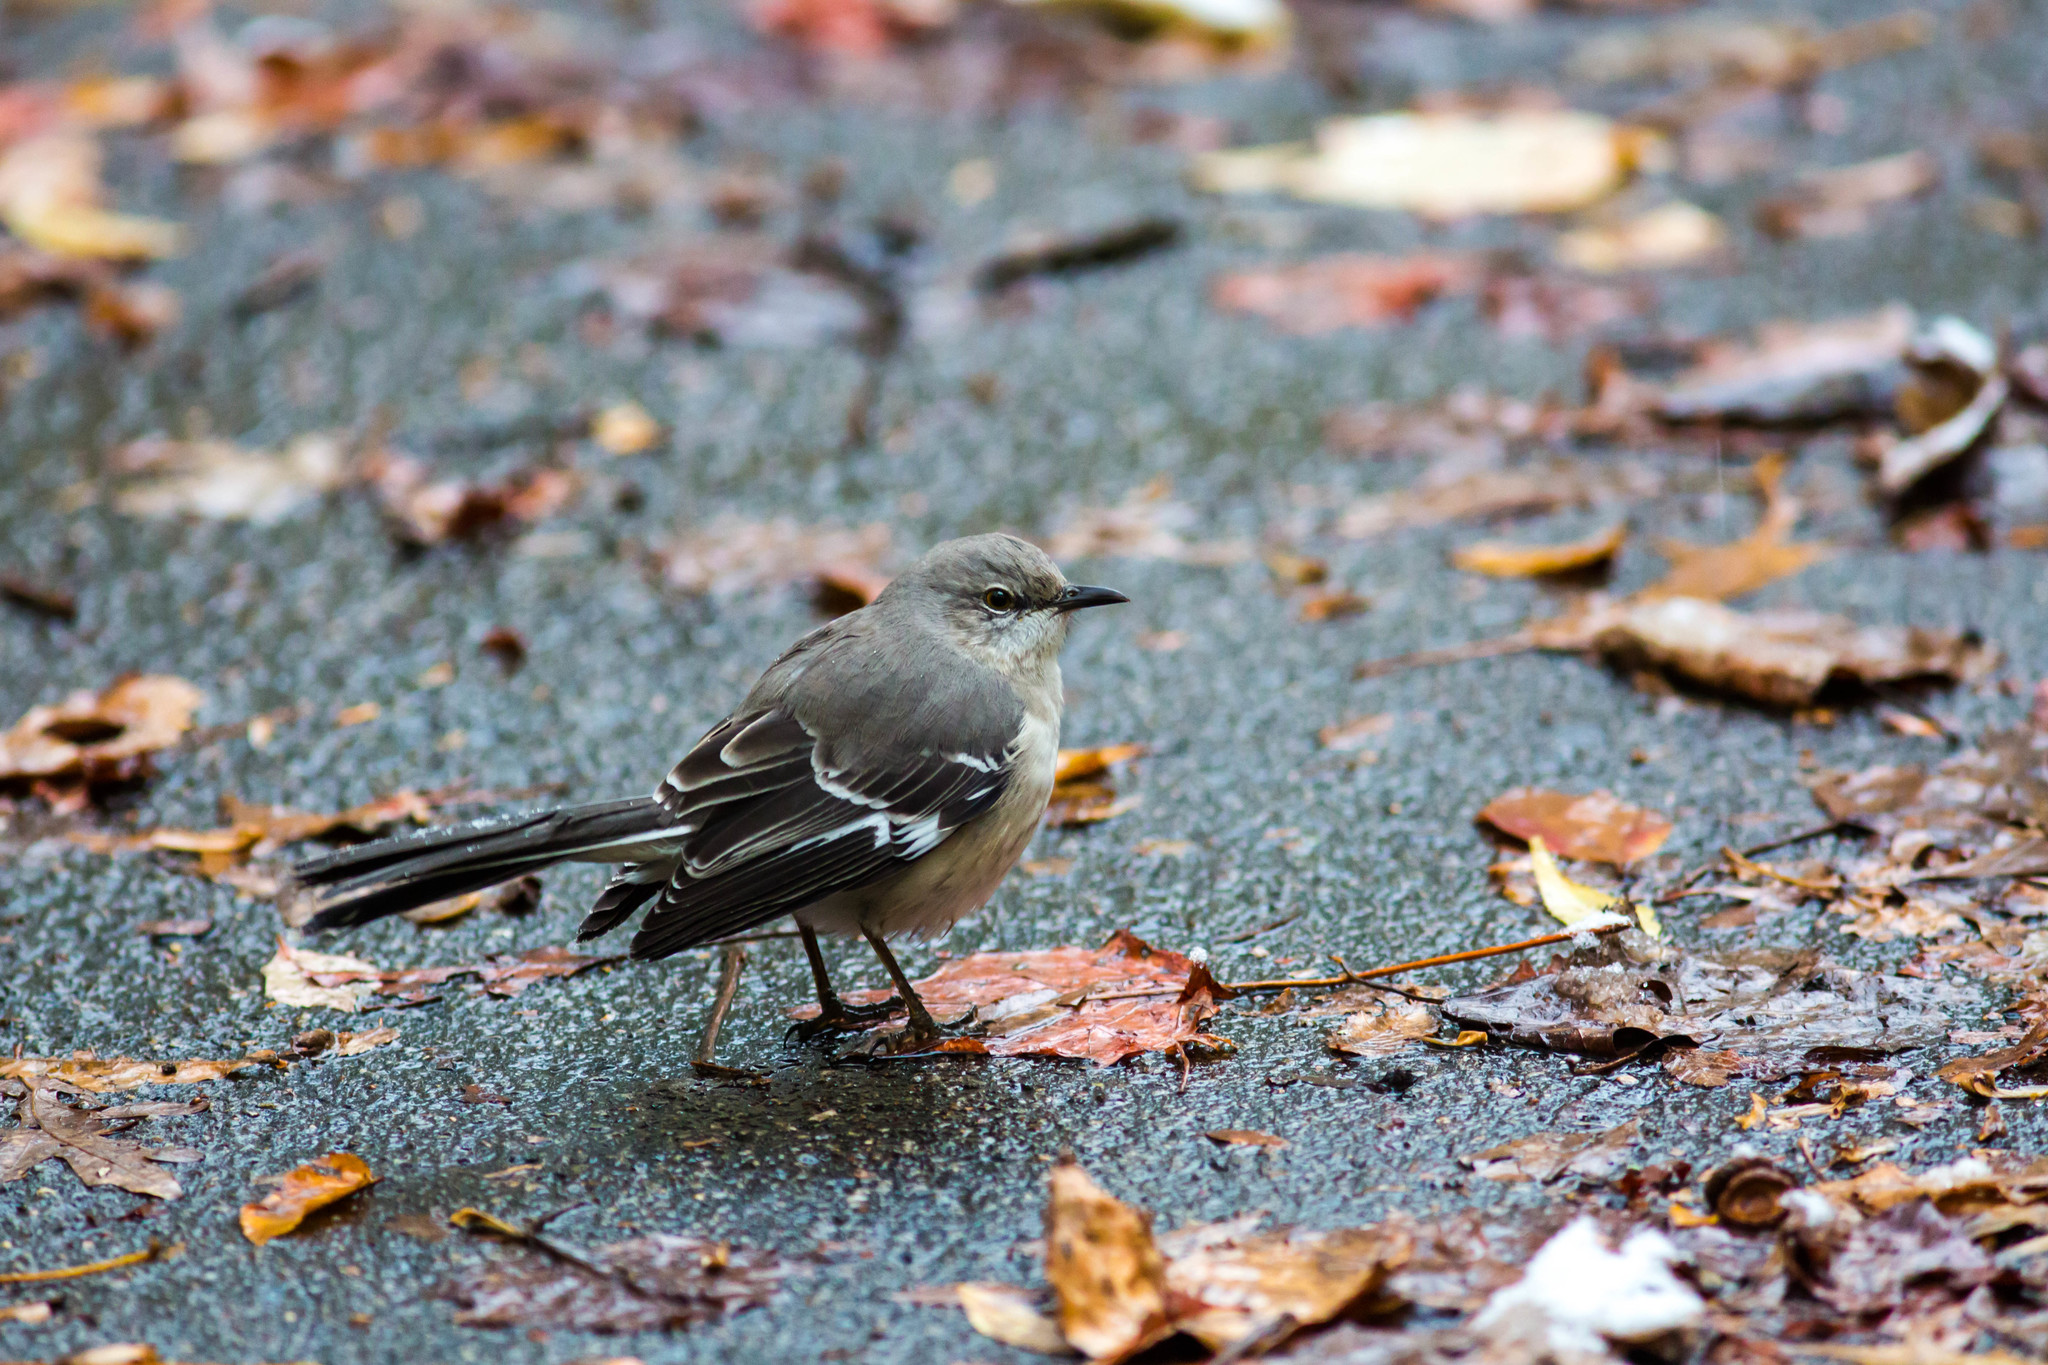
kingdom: Animalia
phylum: Chordata
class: Aves
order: Passeriformes
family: Mimidae
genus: Mimus
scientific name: Mimus polyglottos
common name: Northern mockingbird
